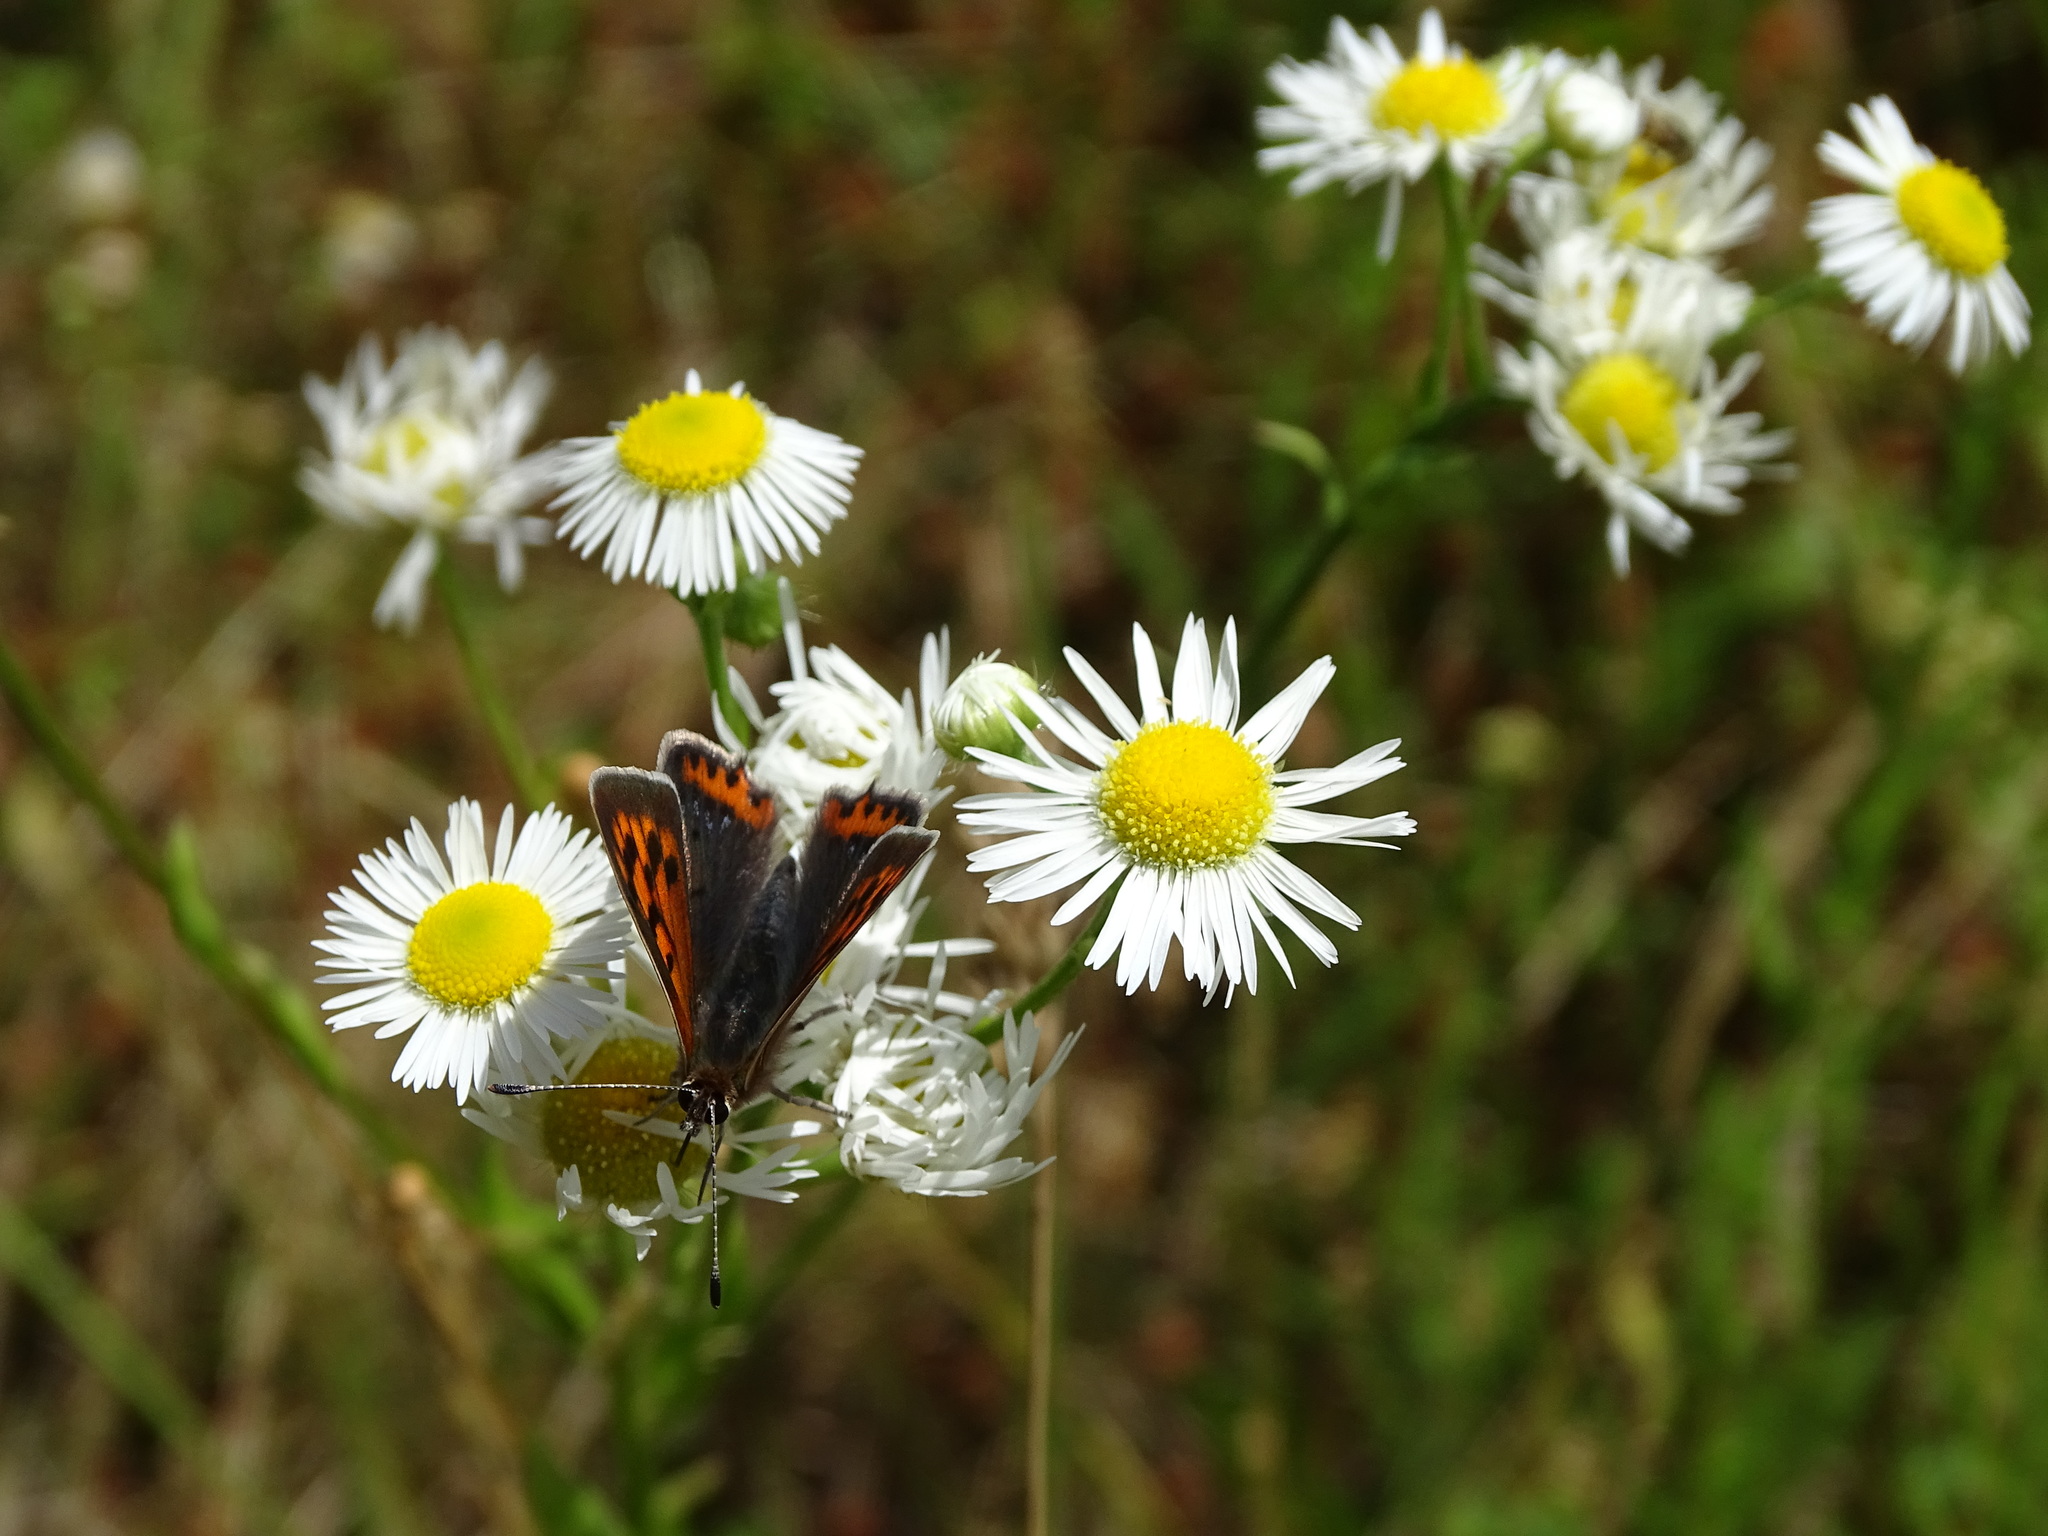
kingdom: Animalia
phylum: Arthropoda
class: Insecta
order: Lepidoptera
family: Lycaenidae
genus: Lycaena
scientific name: Lycaena phlaeas
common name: Small copper
